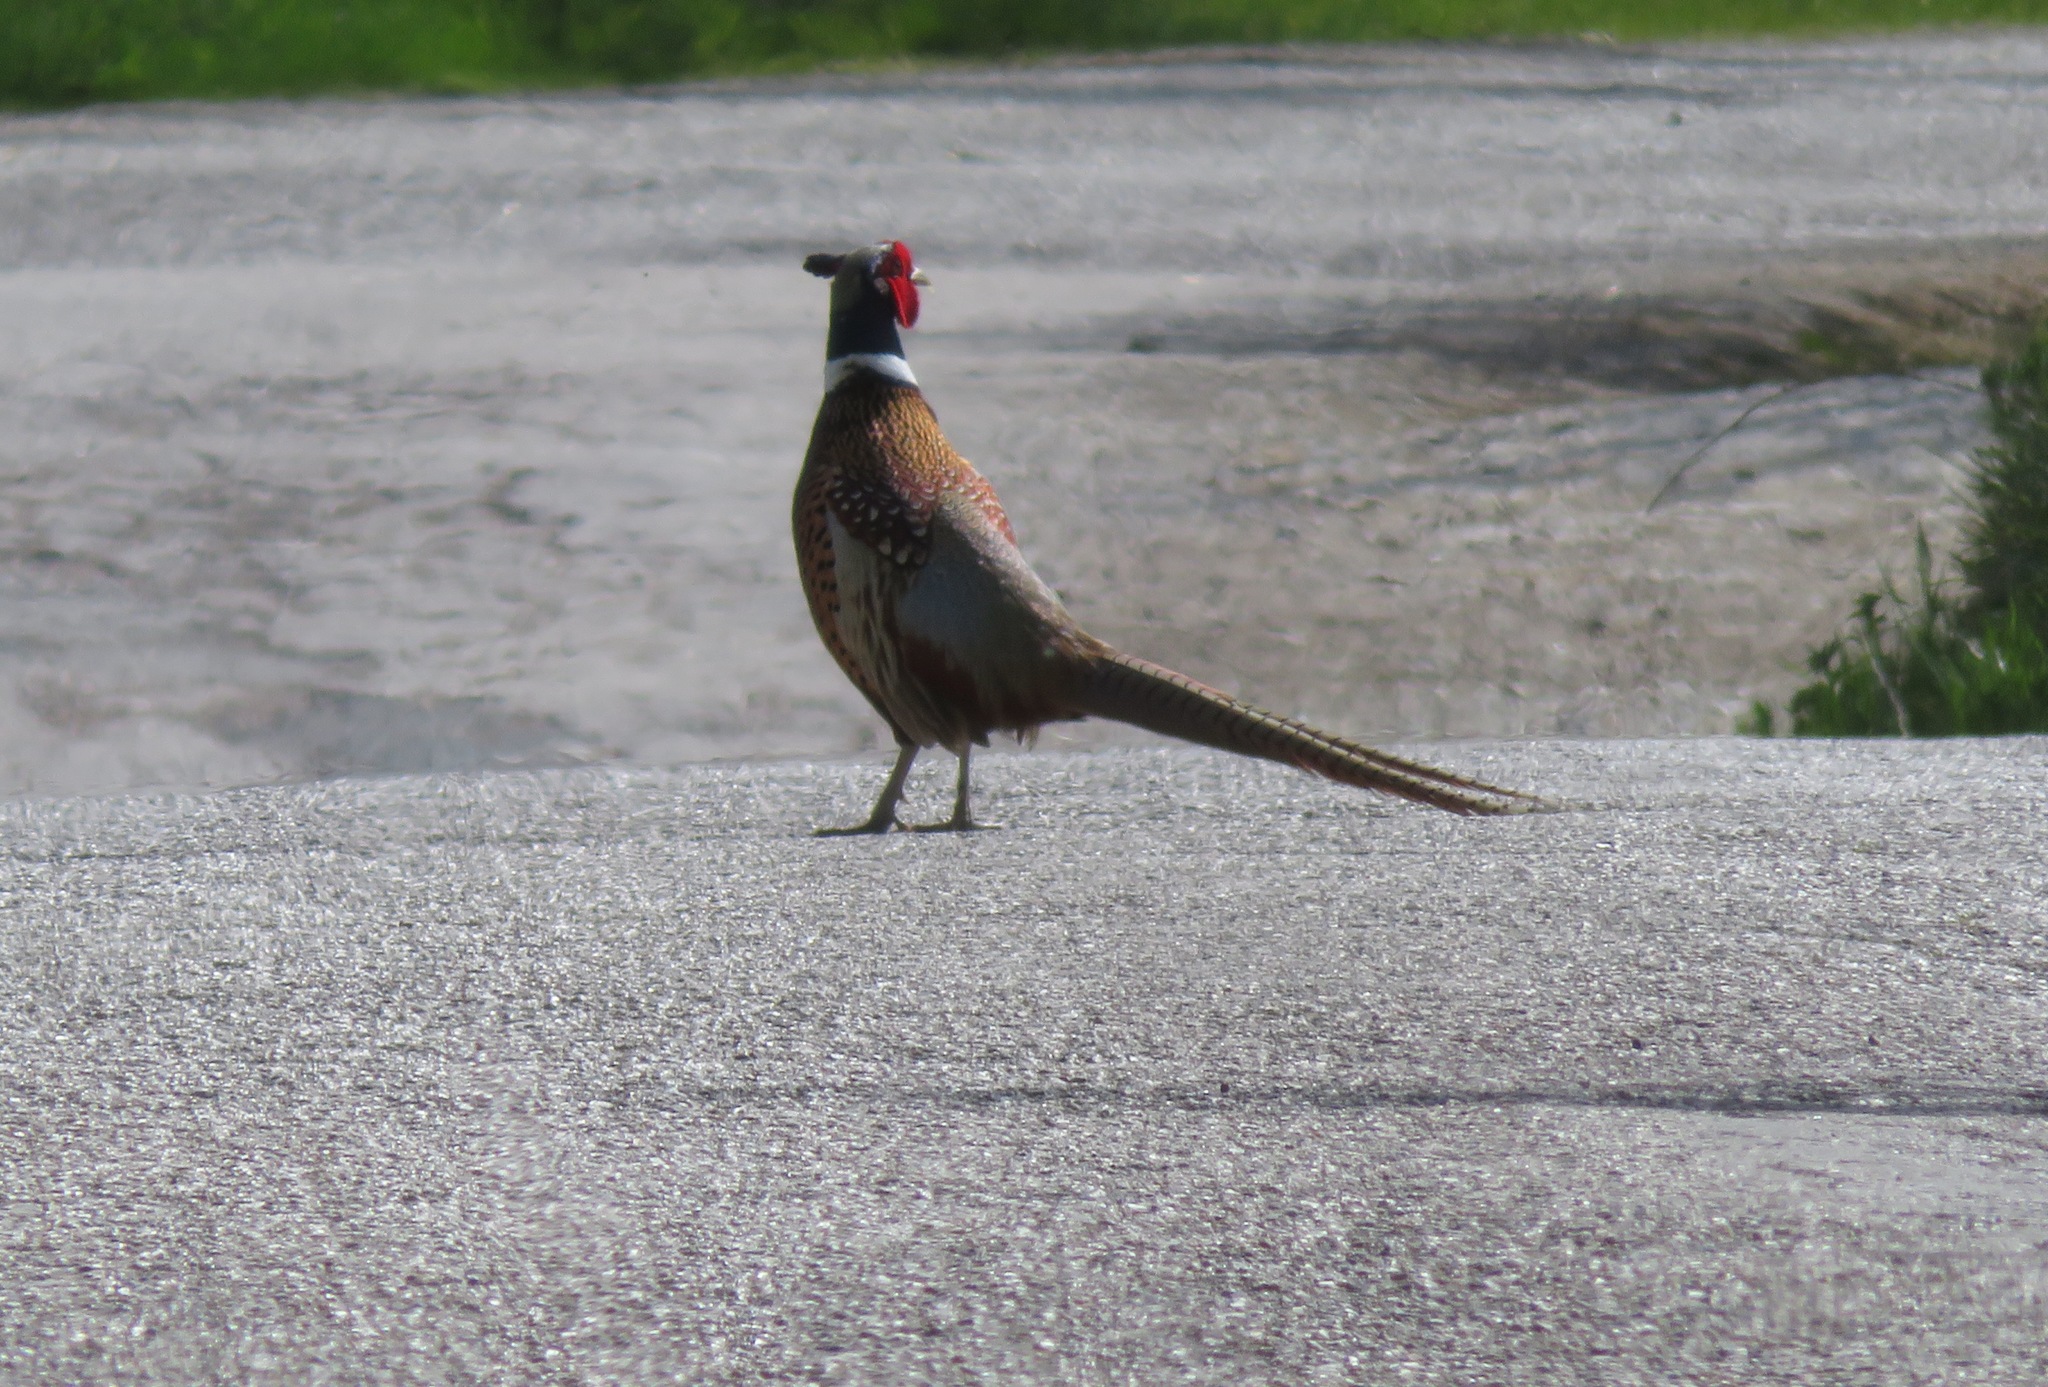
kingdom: Animalia
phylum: Chordata
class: Aves
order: Galliformes
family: Phasianidae
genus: Phasianus
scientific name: Phasianus colchicus
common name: Common pheasant
